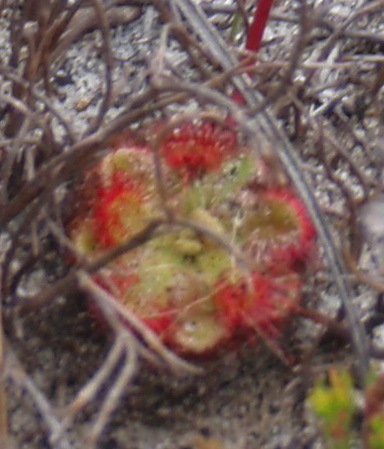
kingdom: Plantae
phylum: Tracheophyta
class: Magnoliopsida
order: Caryophyllales
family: Droseraceae
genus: Drosera
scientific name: Drosera xerophila
